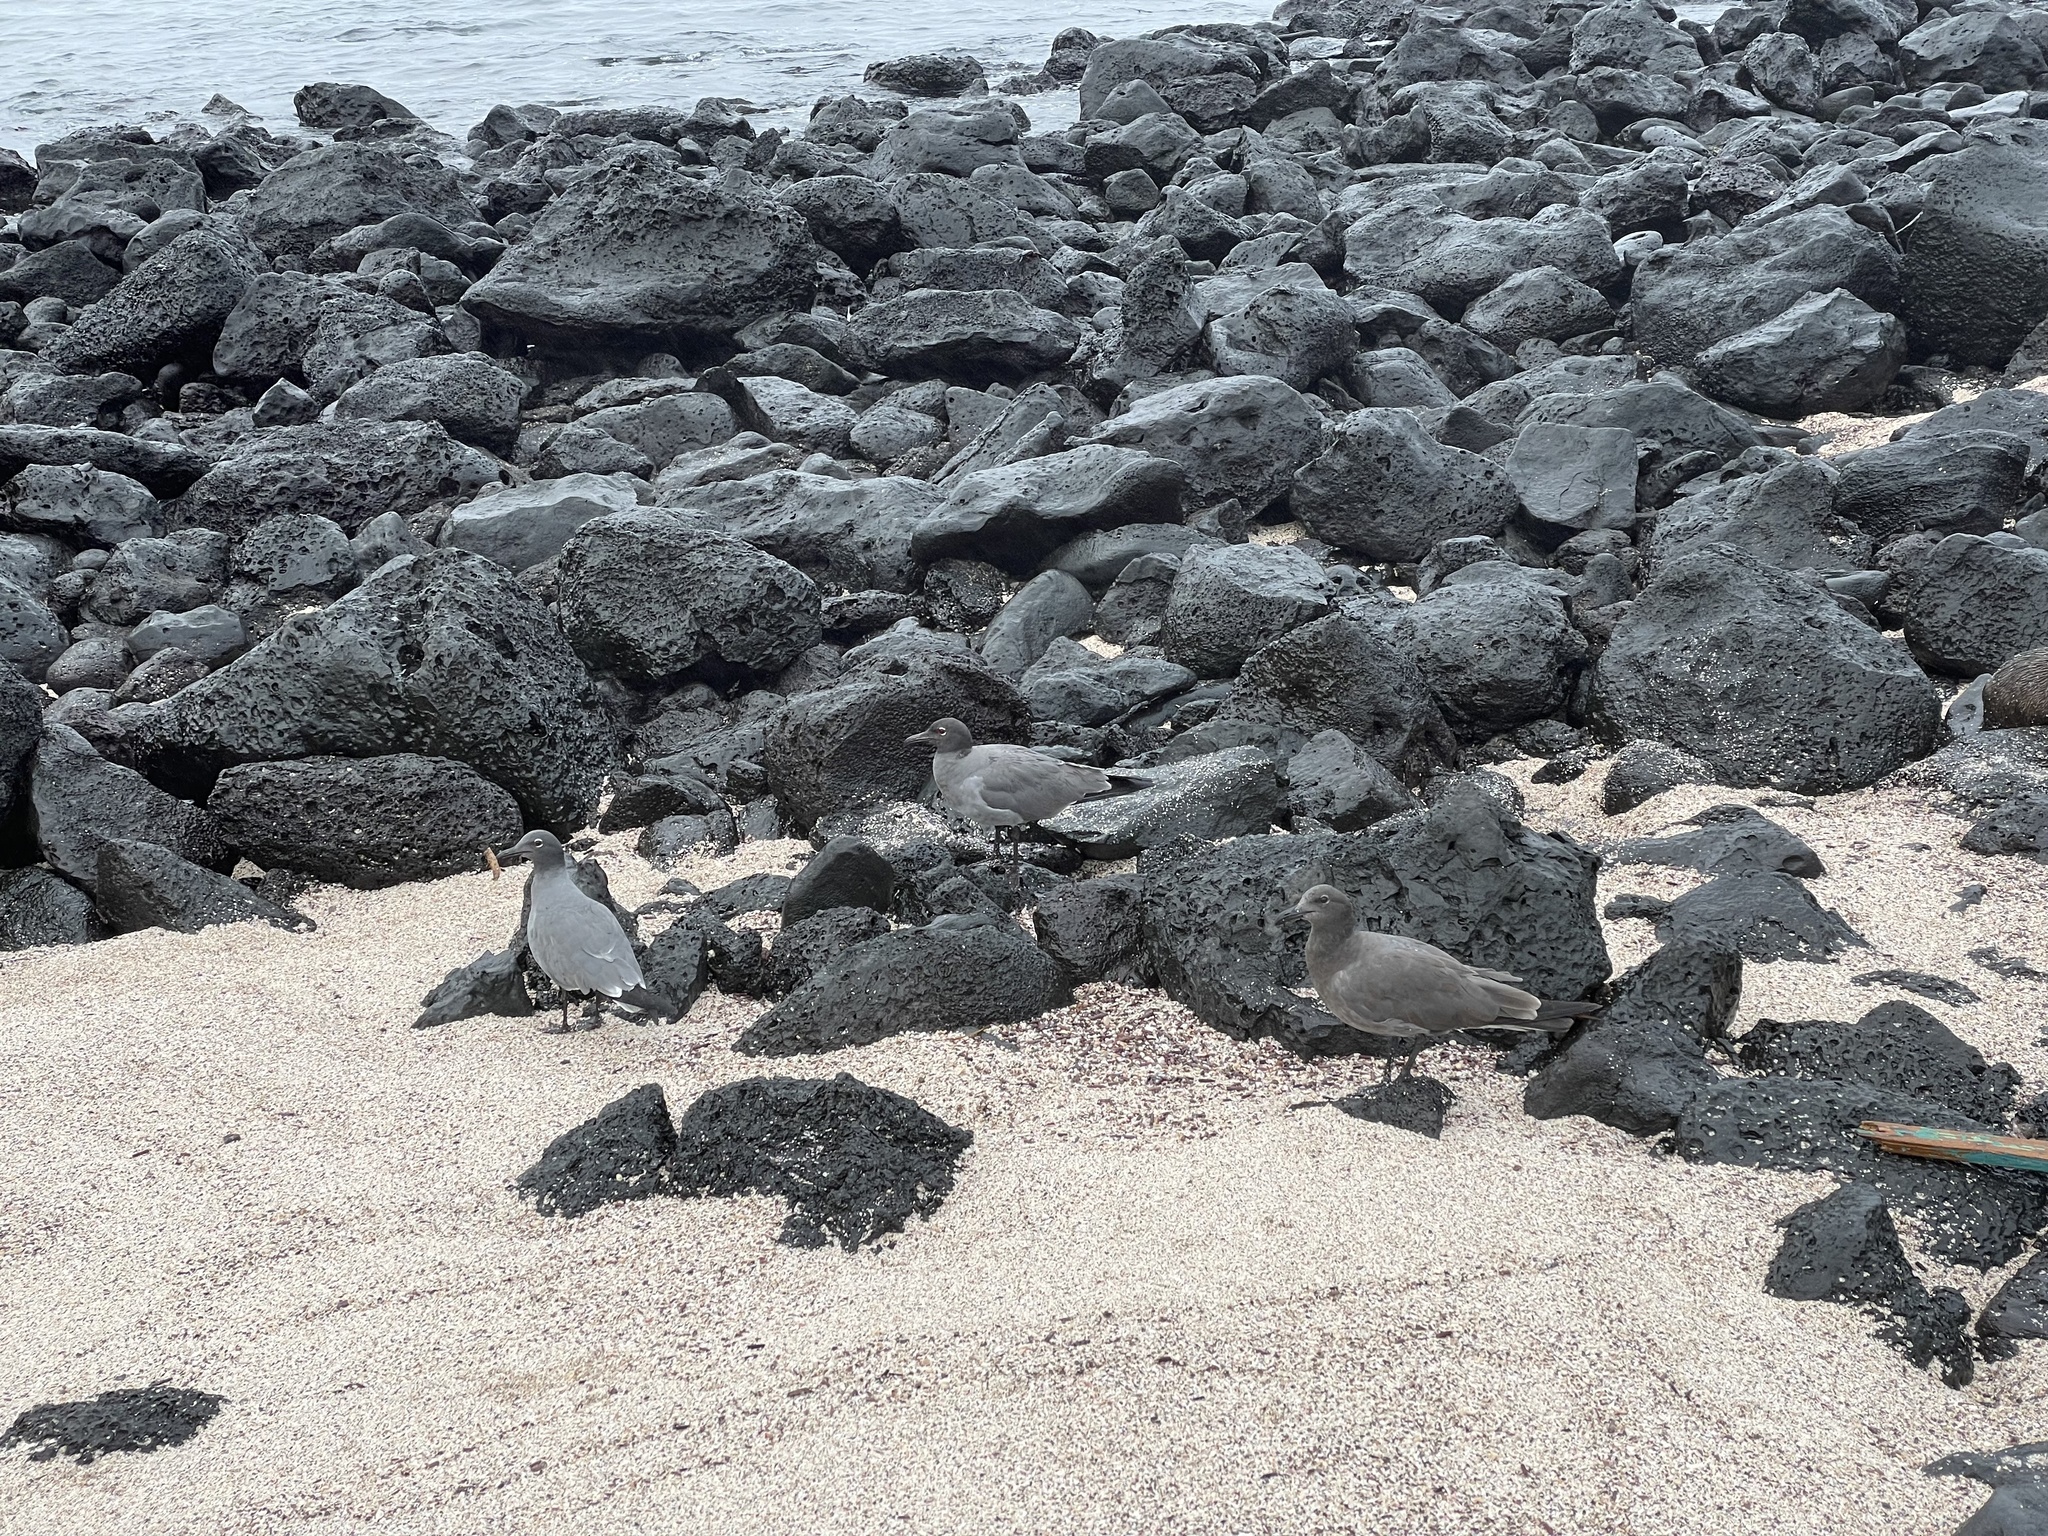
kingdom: Animalia
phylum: Chordata
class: Aves
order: Charadriiformes
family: Laridae
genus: Leucophaeus
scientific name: Leucophaeus fuliginosus
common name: Lava gull
